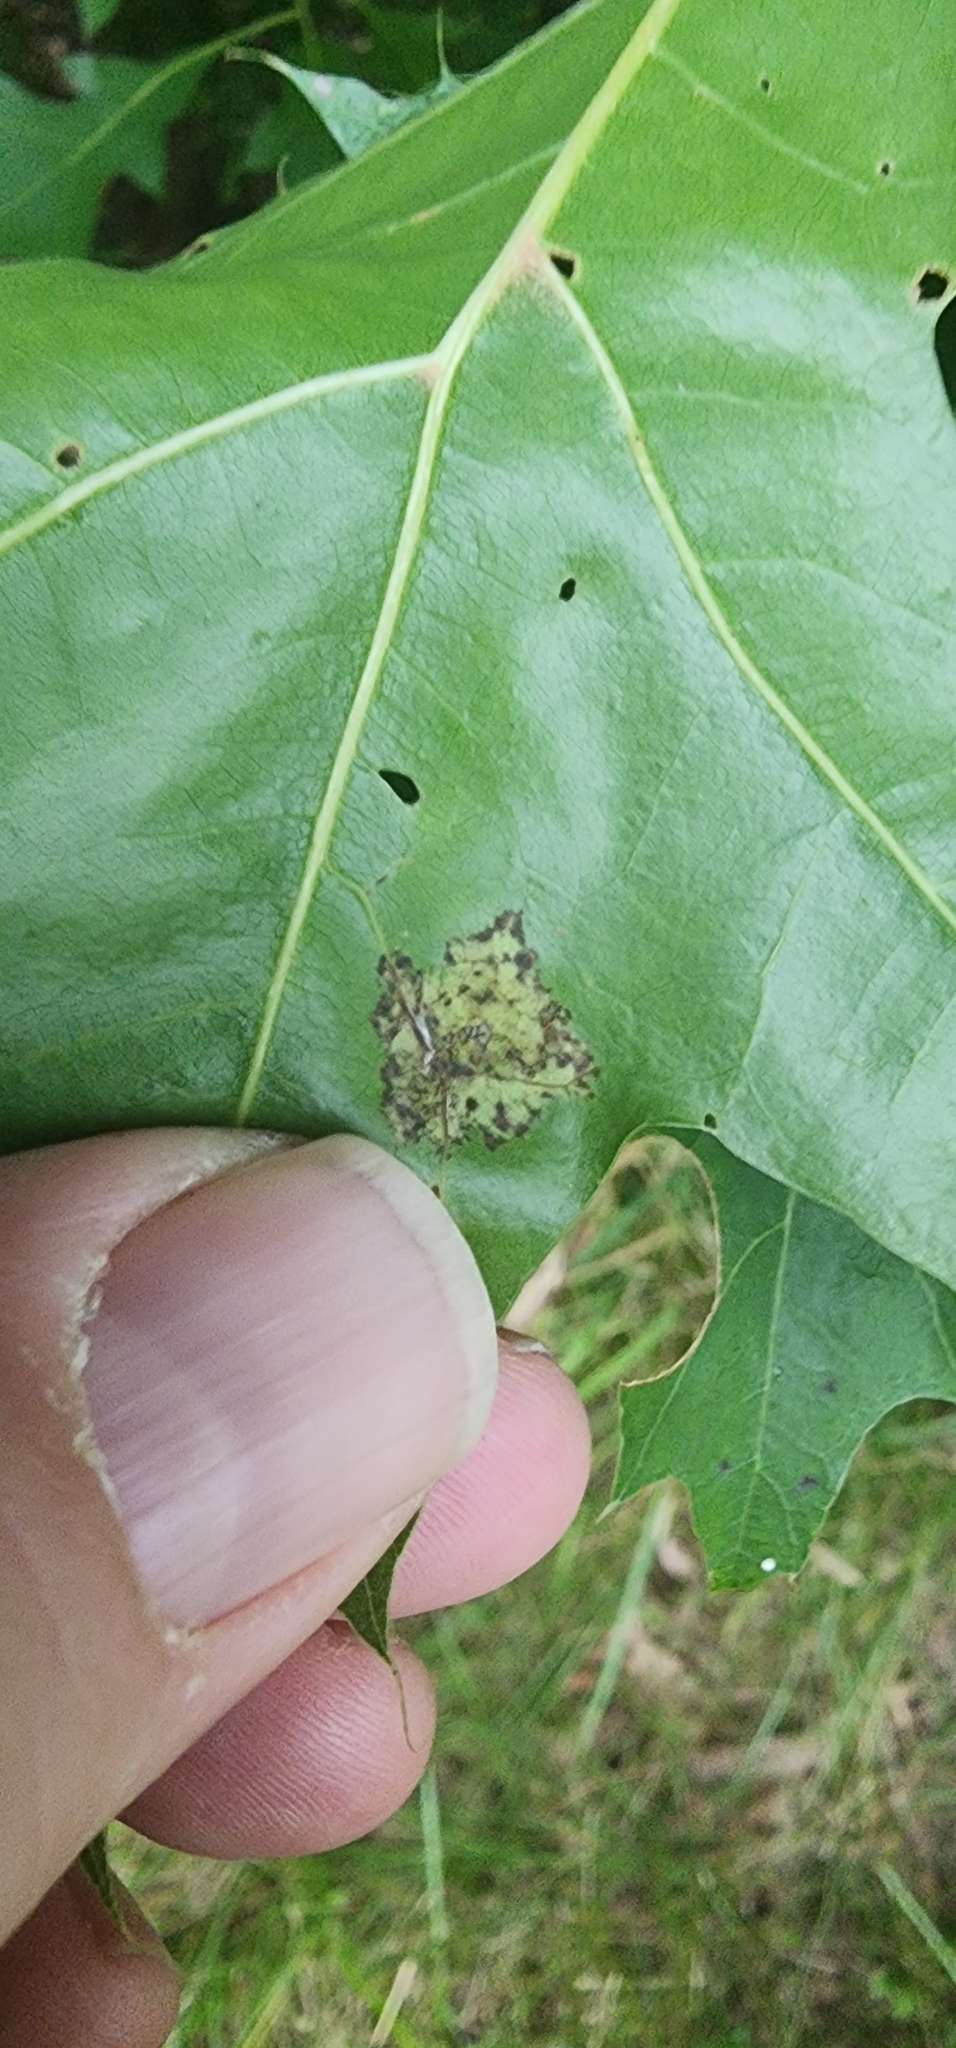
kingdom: Fungi
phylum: Ascomycota
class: Taphrinomycetes
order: Taphrinales
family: Taphrinaceae
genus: Taphrina
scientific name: Taphrina caerulescens
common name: Oak leaf blister
